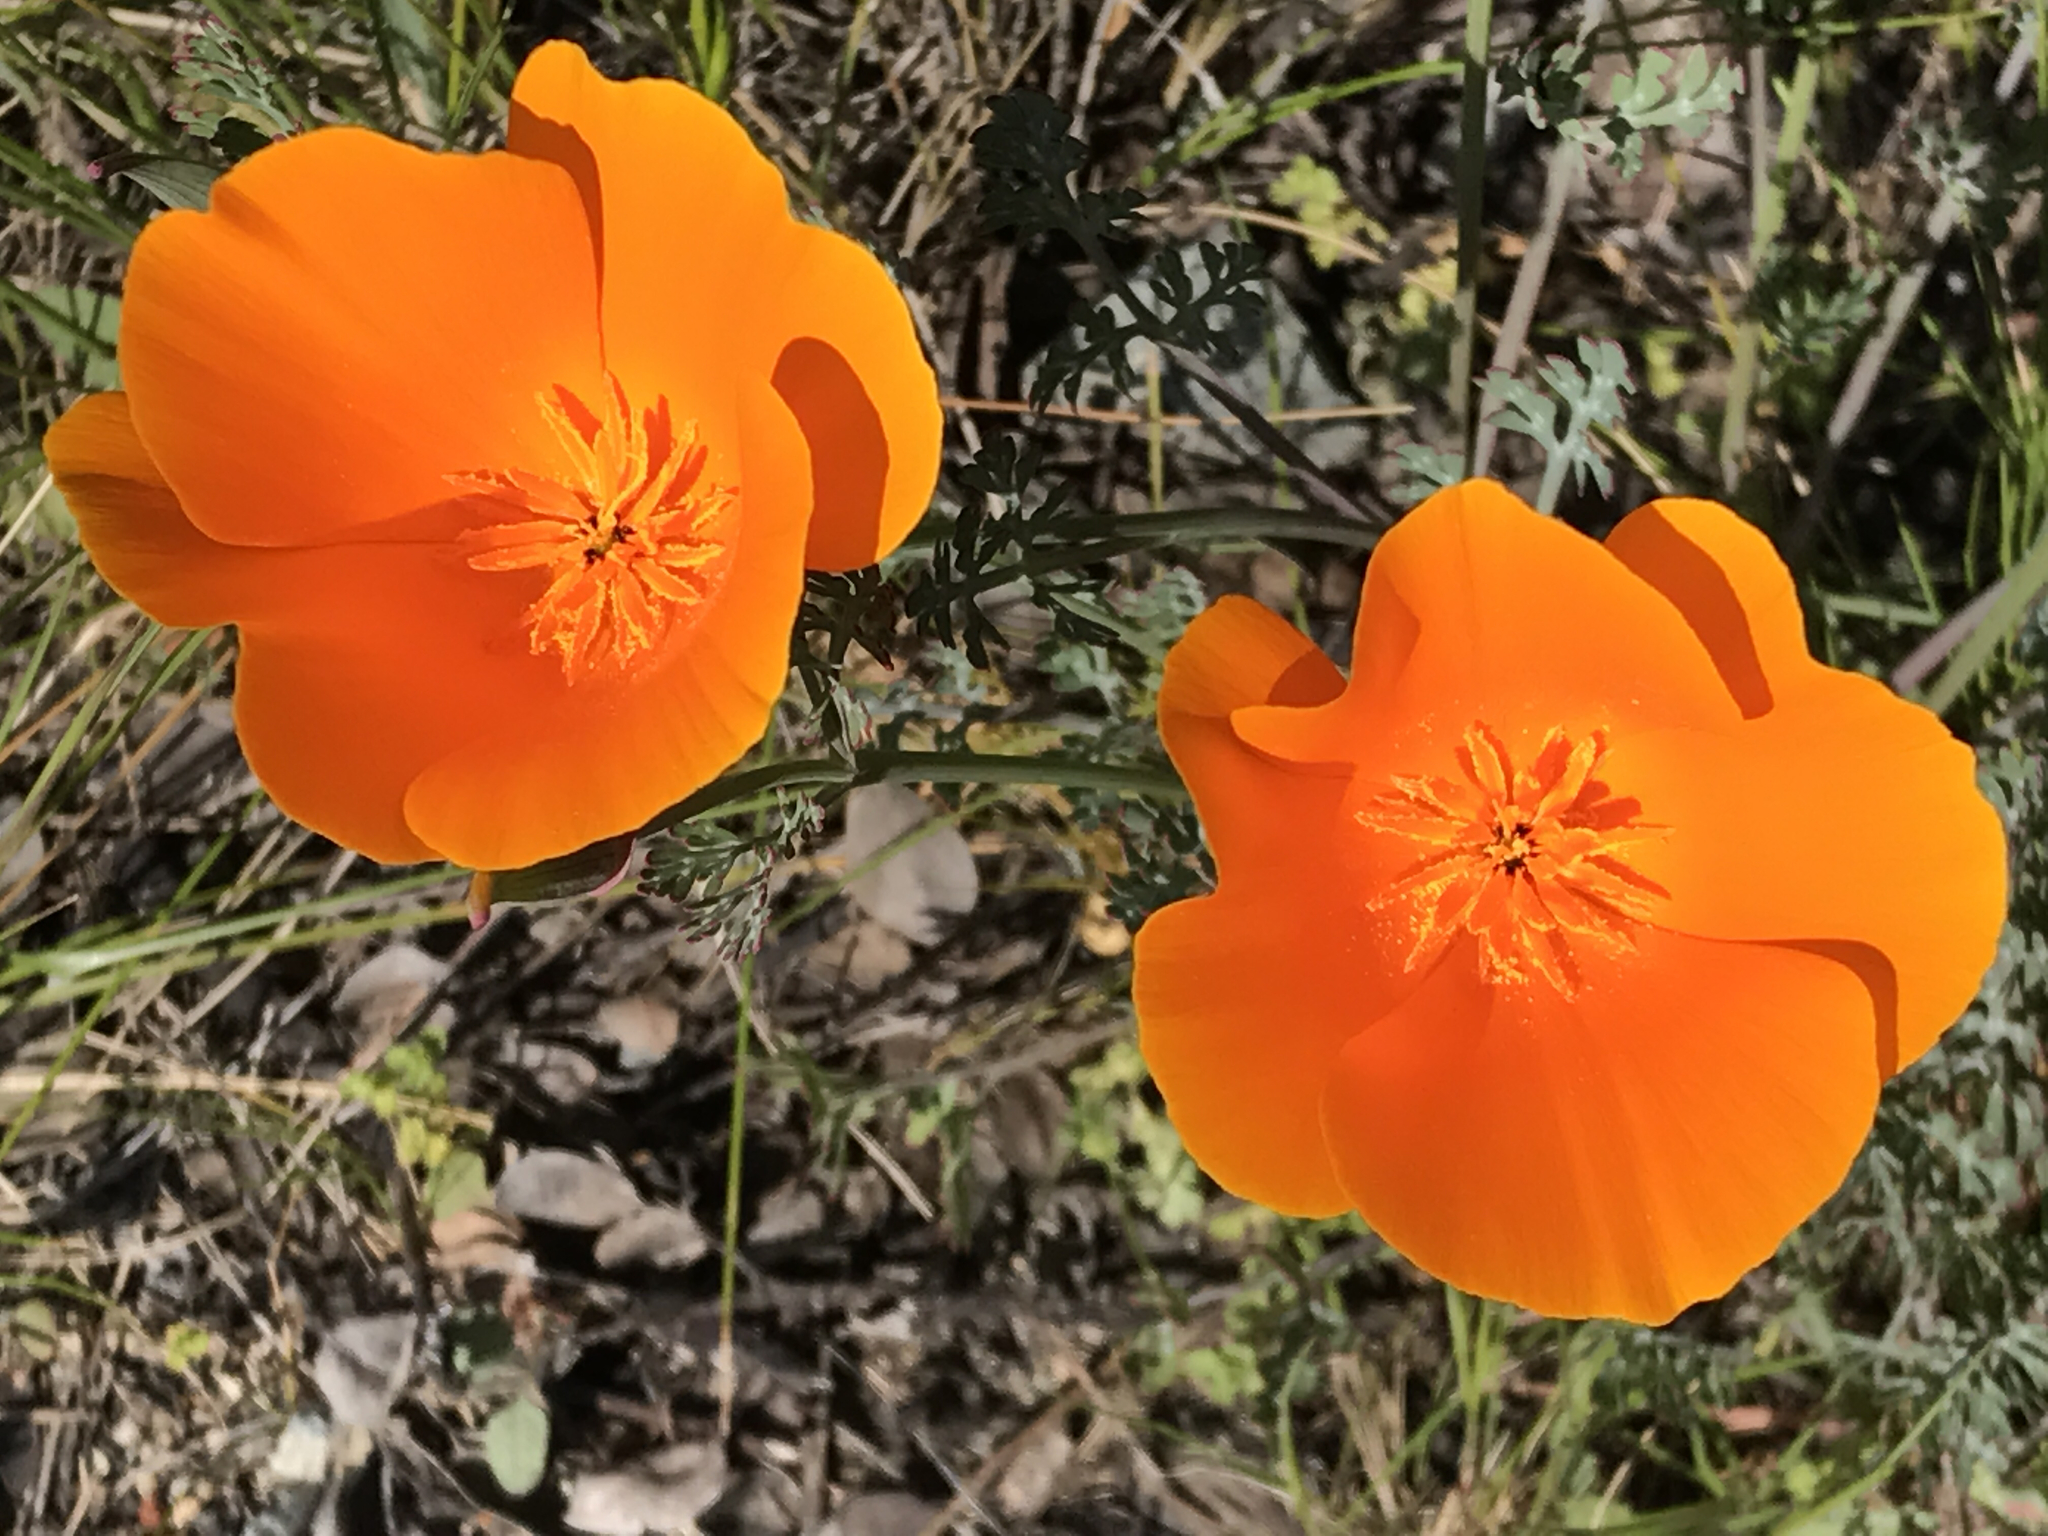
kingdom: Plantae
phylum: Tracheophyta
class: Magnoliopsida
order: Ranunculales
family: Papaveraceae
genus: Eschscholzia
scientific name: Eschscholzia californica
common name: California poppy
